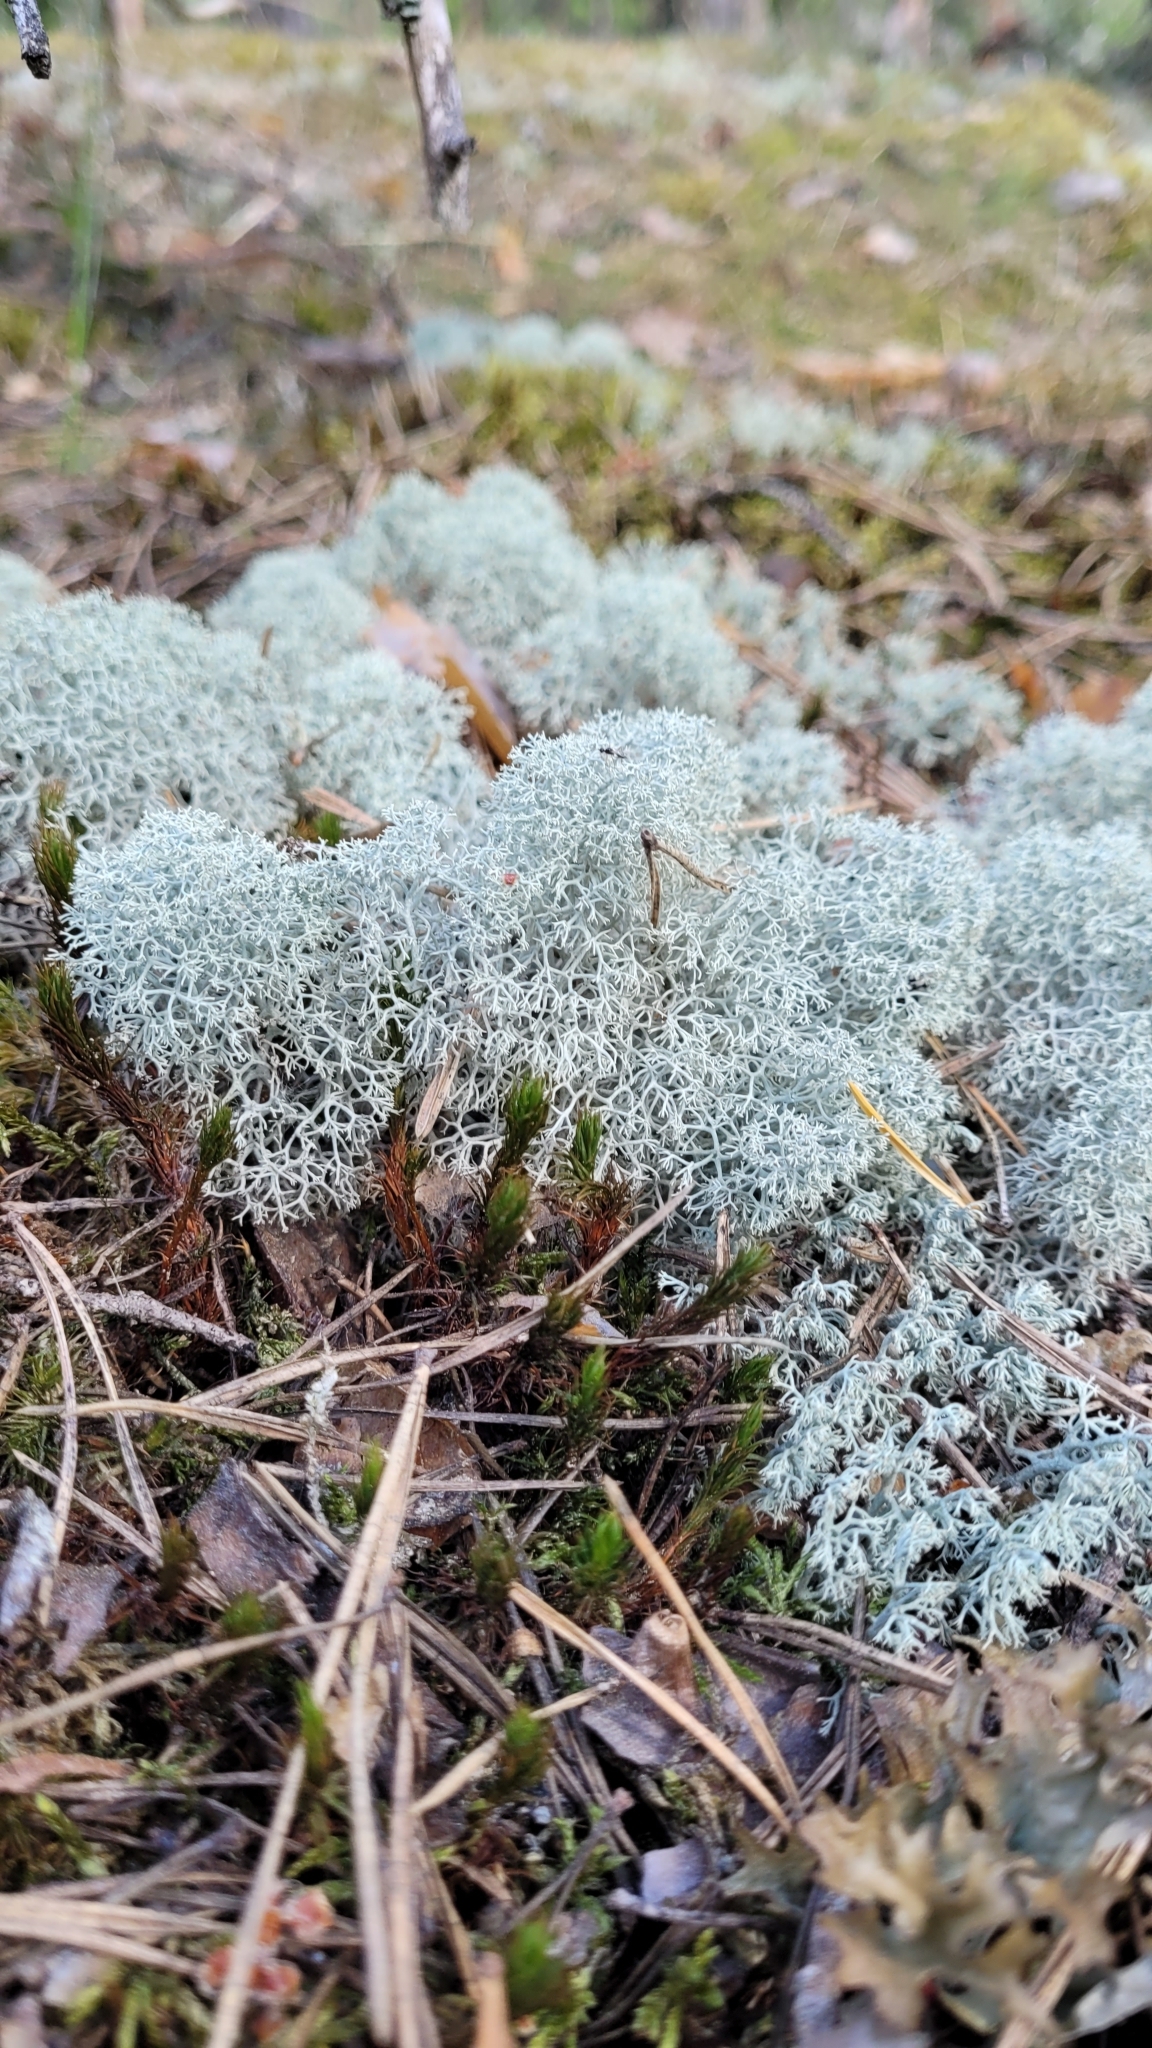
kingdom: Fungi
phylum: Ascomycota
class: Lecanoromycetes
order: Lecanorales
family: Cladoniaceae
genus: Cladonia
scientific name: Cladonia stellaris
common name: Star-tipped reindeer lichen
